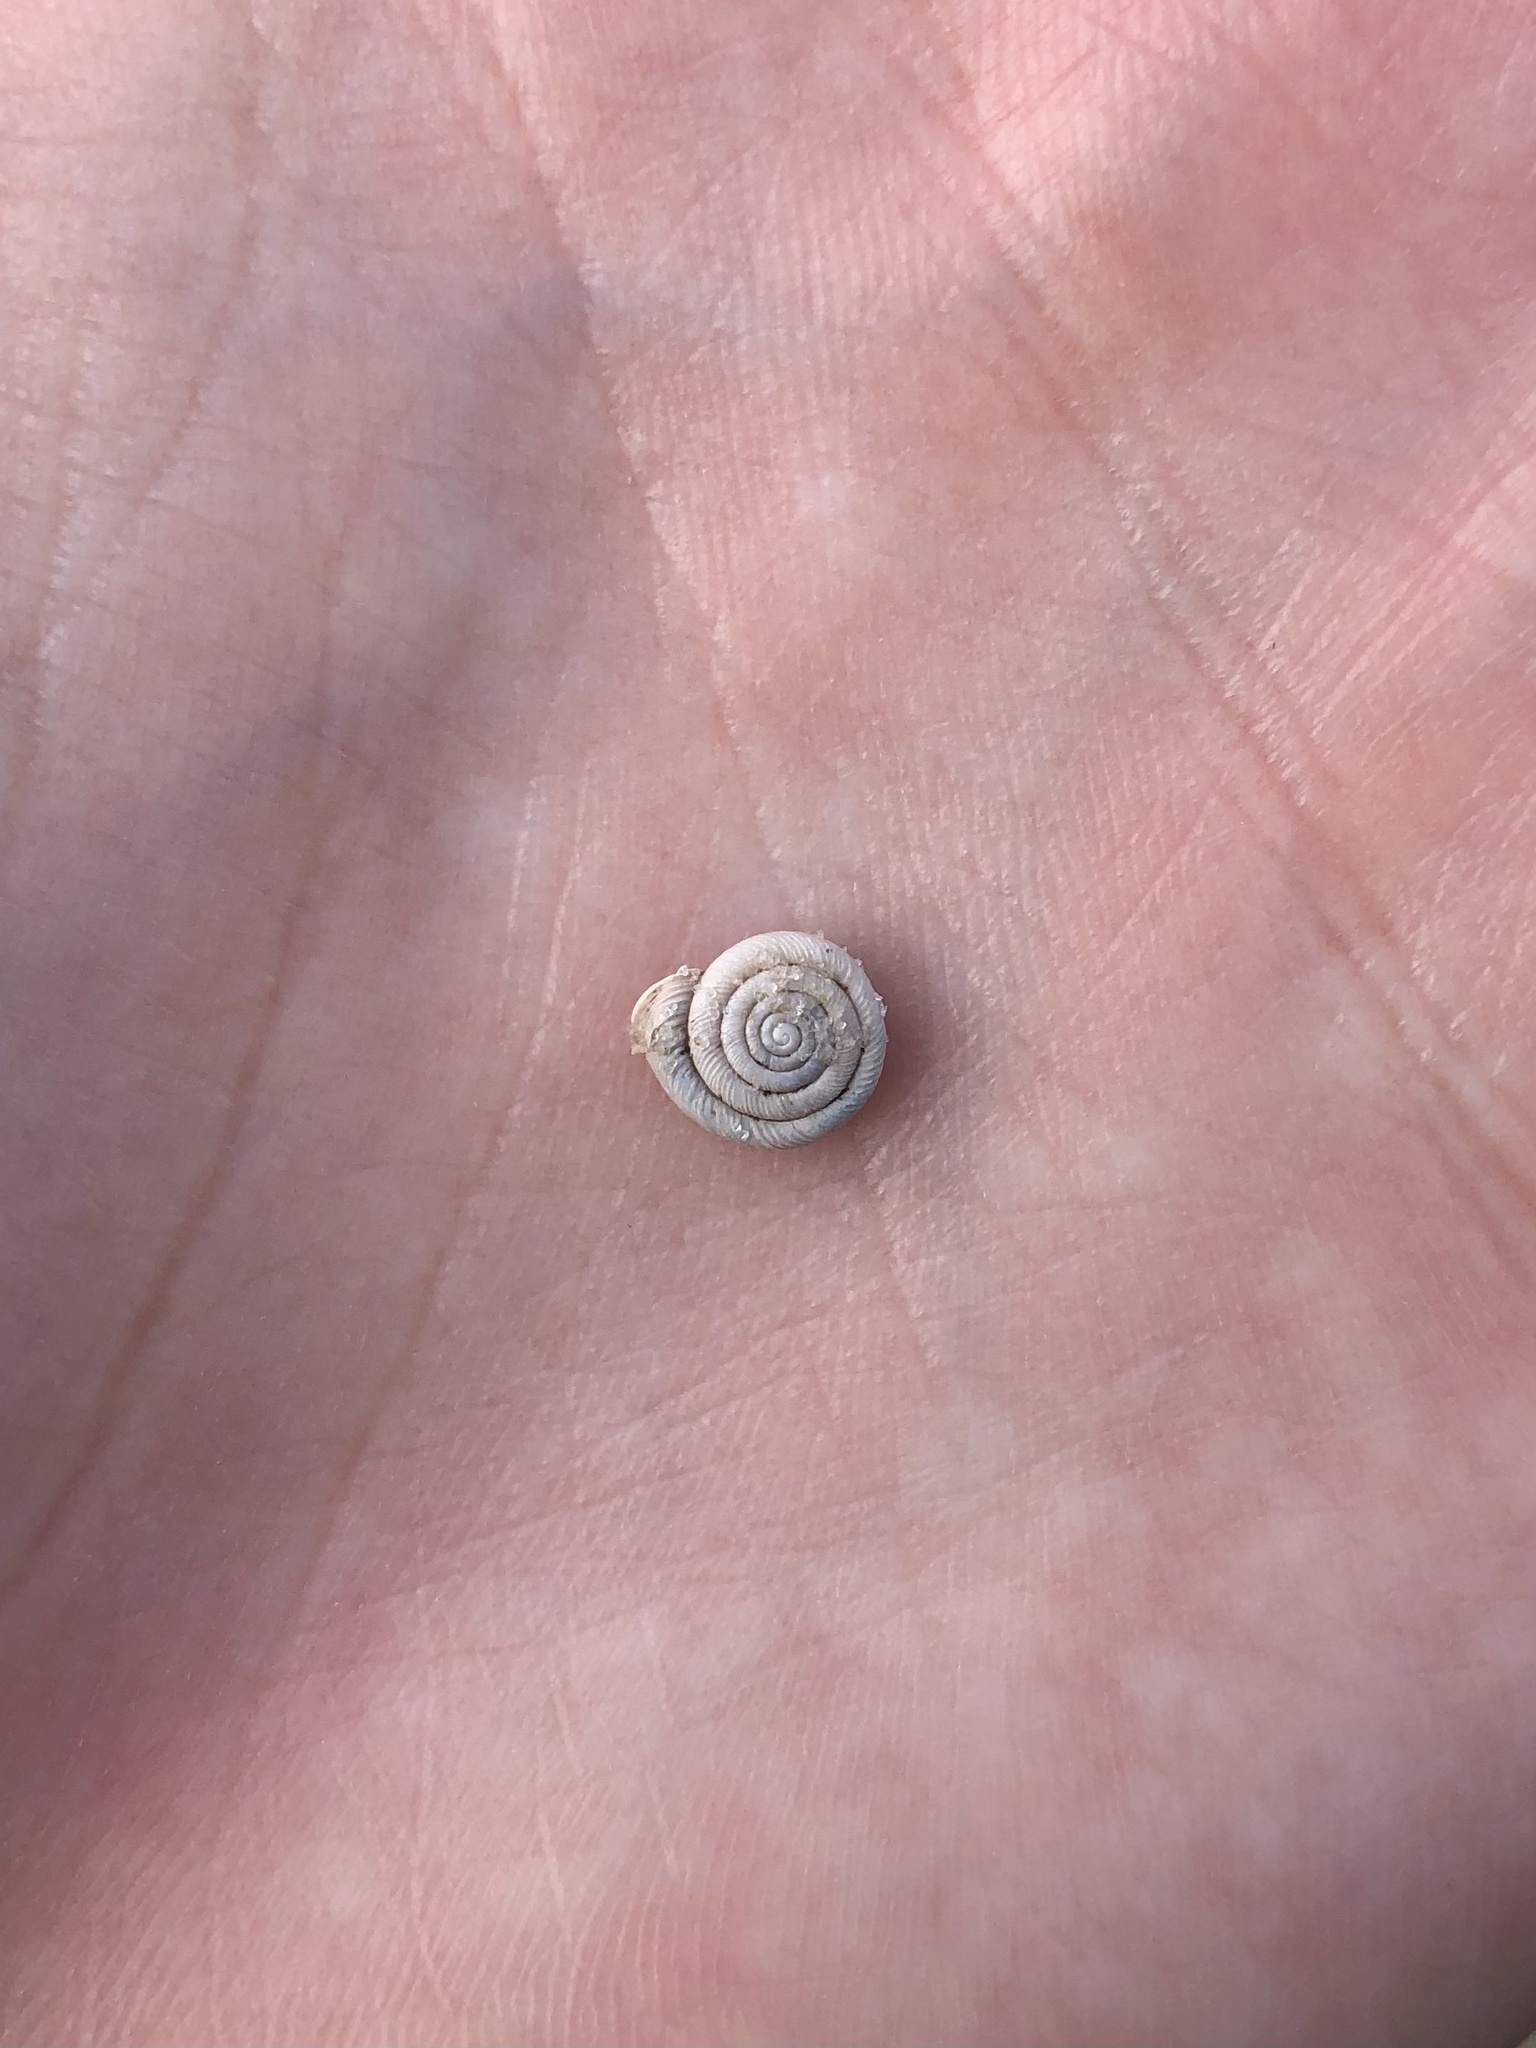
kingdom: Animalia
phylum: Mollusca
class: Gastropoda
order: Stylommatophora
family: Polygyridae
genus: Polygyra
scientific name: Polygyra cereolus
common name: Southern flatcone snail
